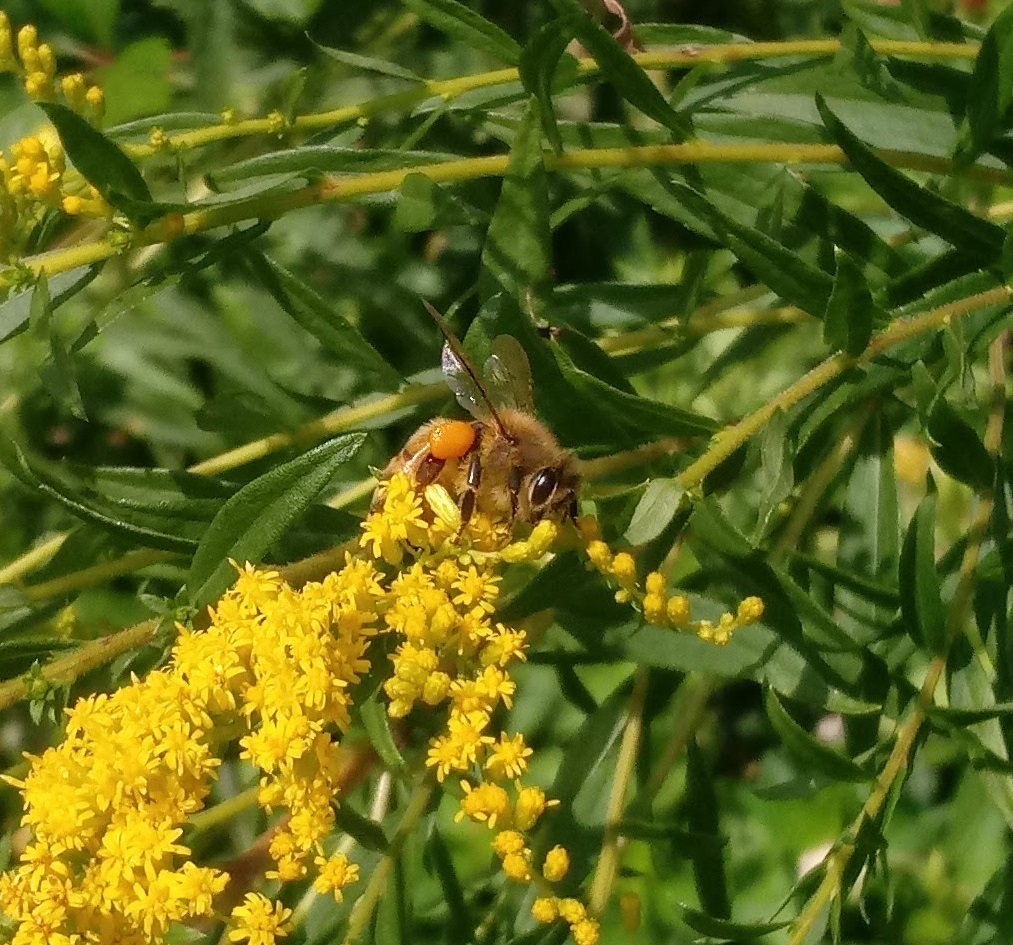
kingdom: Animalia
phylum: Arthropoda
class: Insecta
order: Hymenoptera
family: Apidae
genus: Apis
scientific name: Apis mellifera
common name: Honey bee
